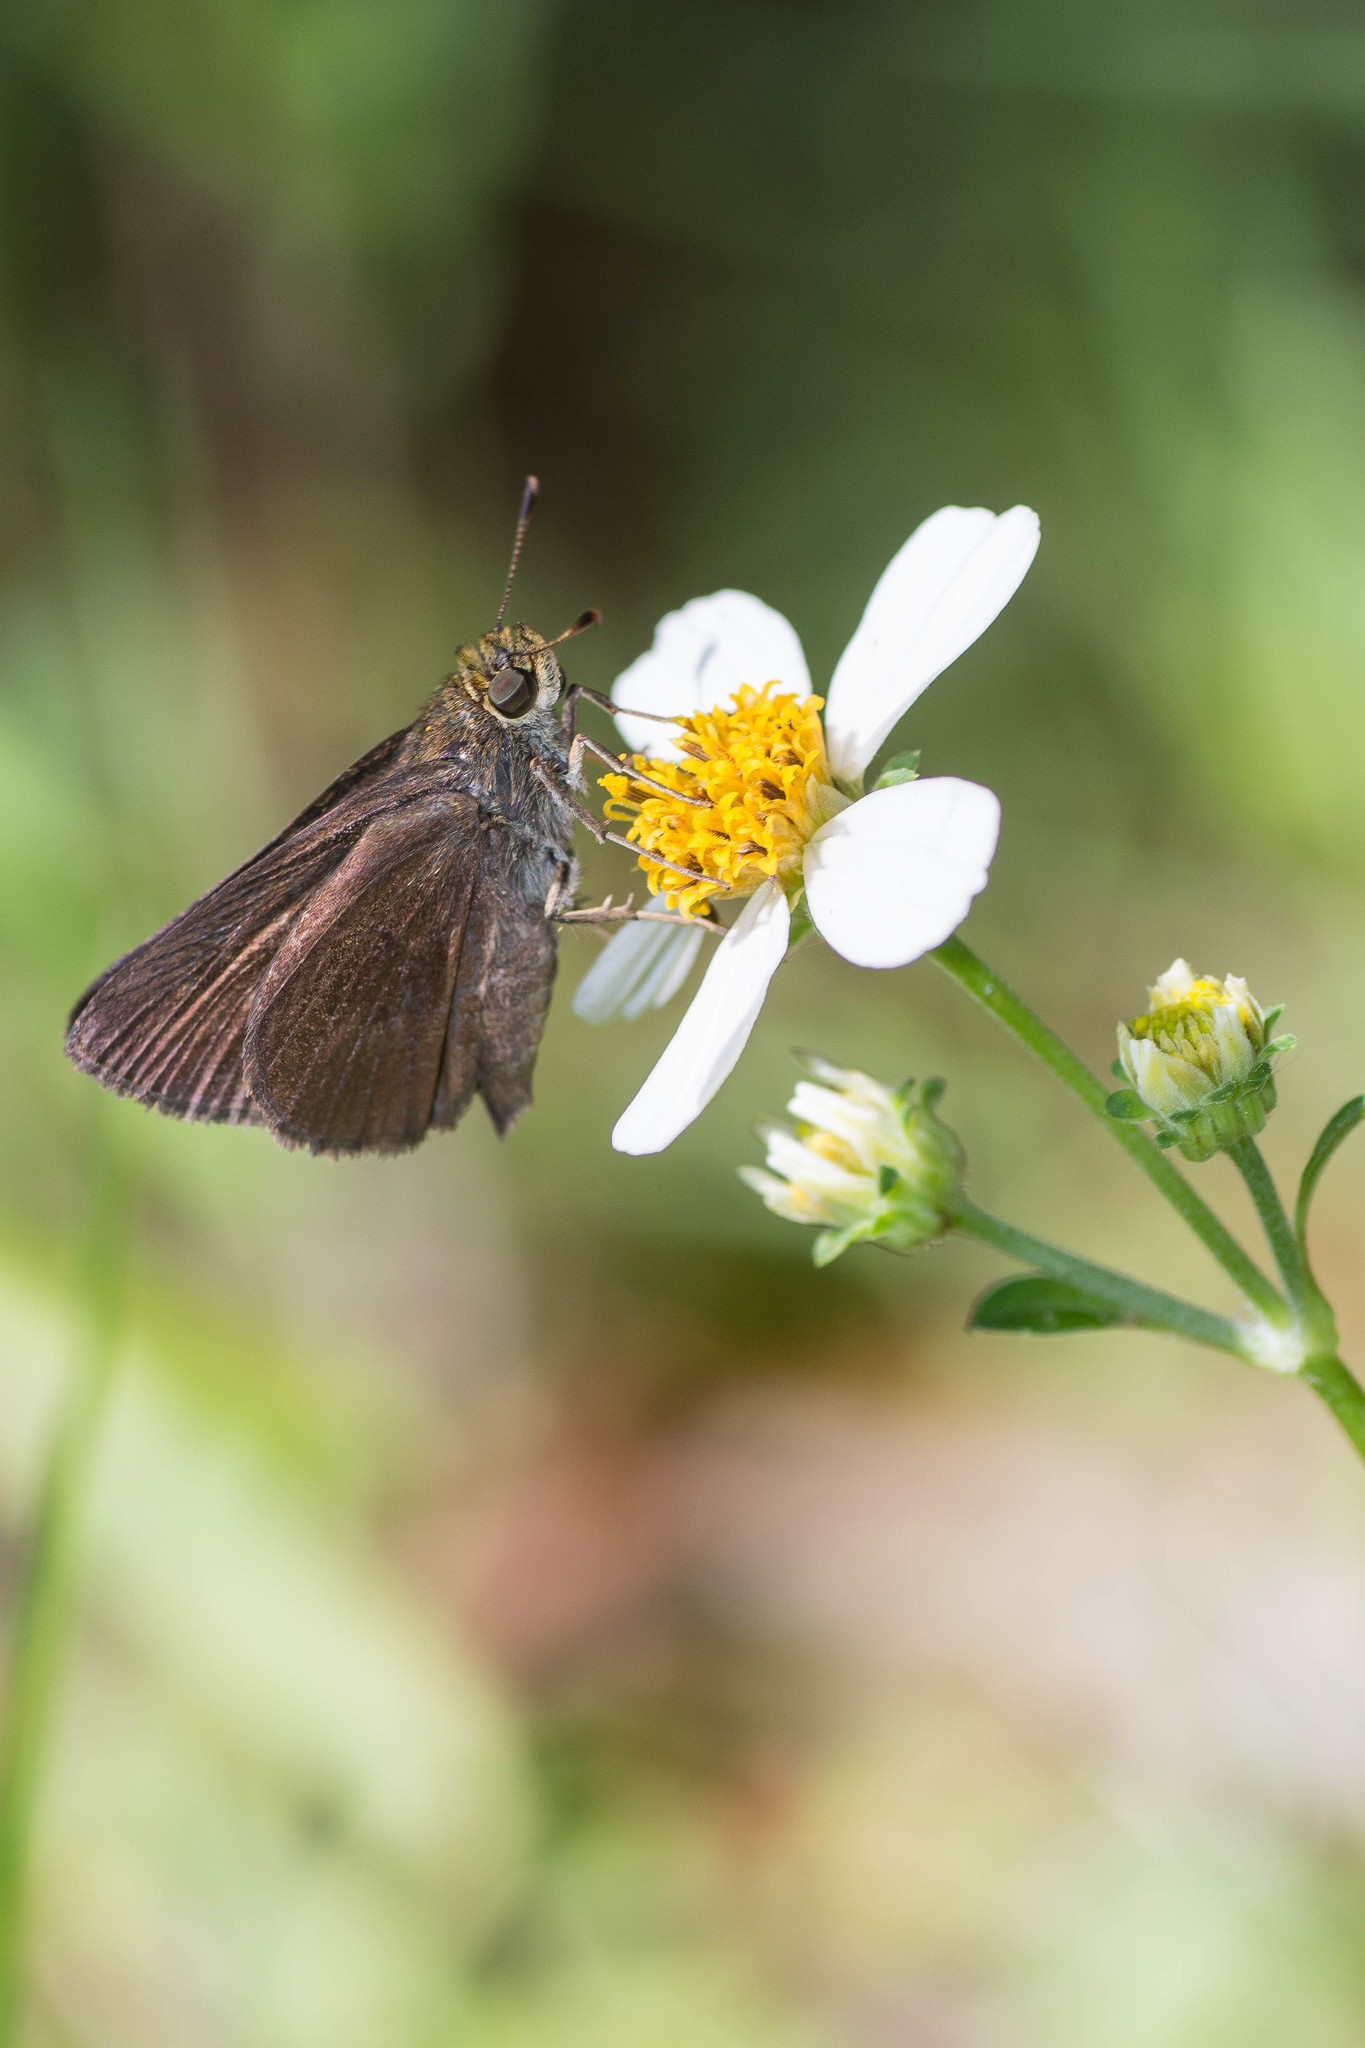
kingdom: Animalia
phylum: Arthropoda
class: Insecta
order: Lepidoptera
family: Hesperiidae
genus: Euphyes
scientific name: Euphyes vestris
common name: Dun skipper
